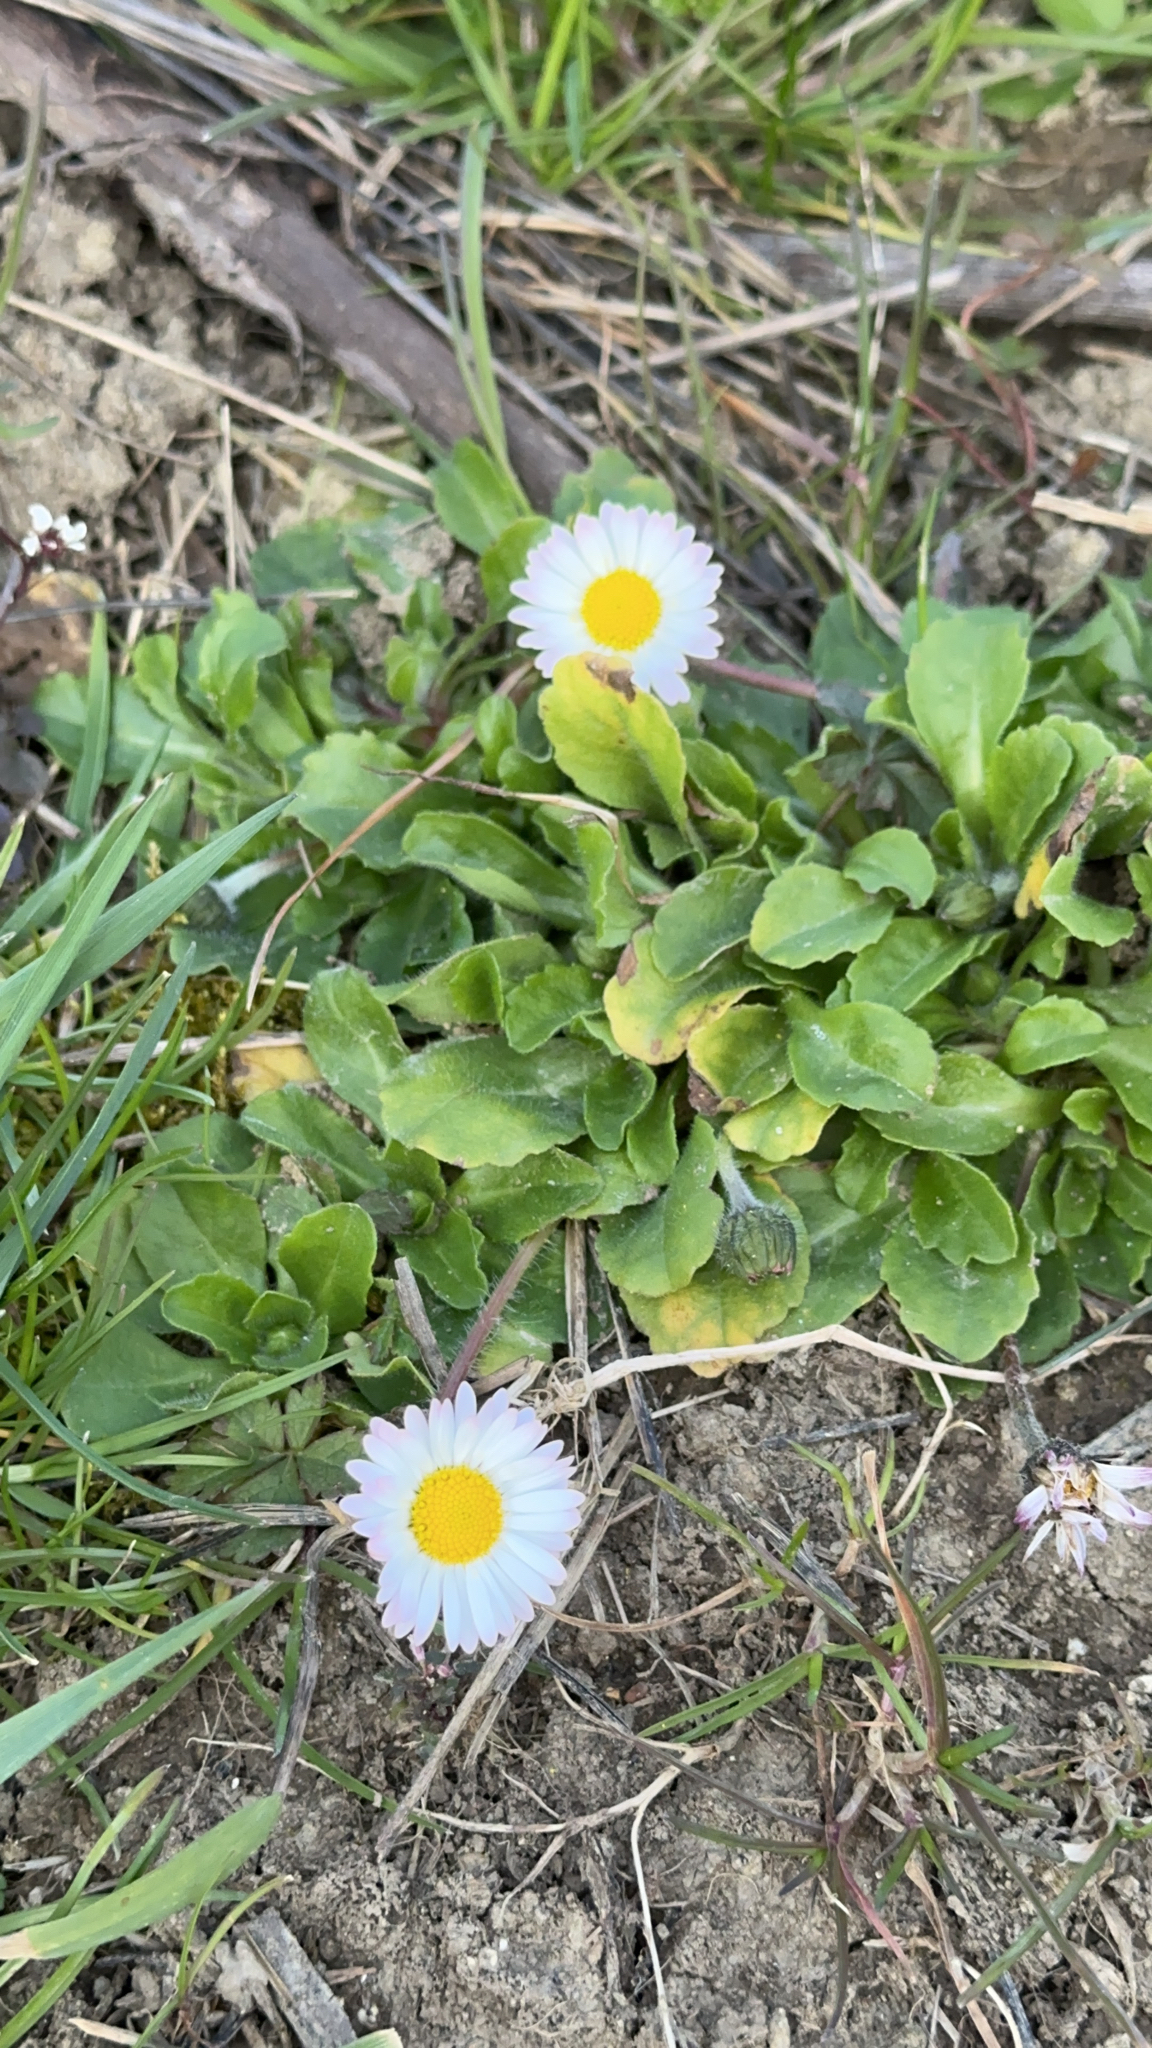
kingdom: Plantae
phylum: Tracheophyta
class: Magnoliopsida
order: Asterales
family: Asteraceae
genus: Bellis
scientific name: Bellis perennis
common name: Lawndaisy
